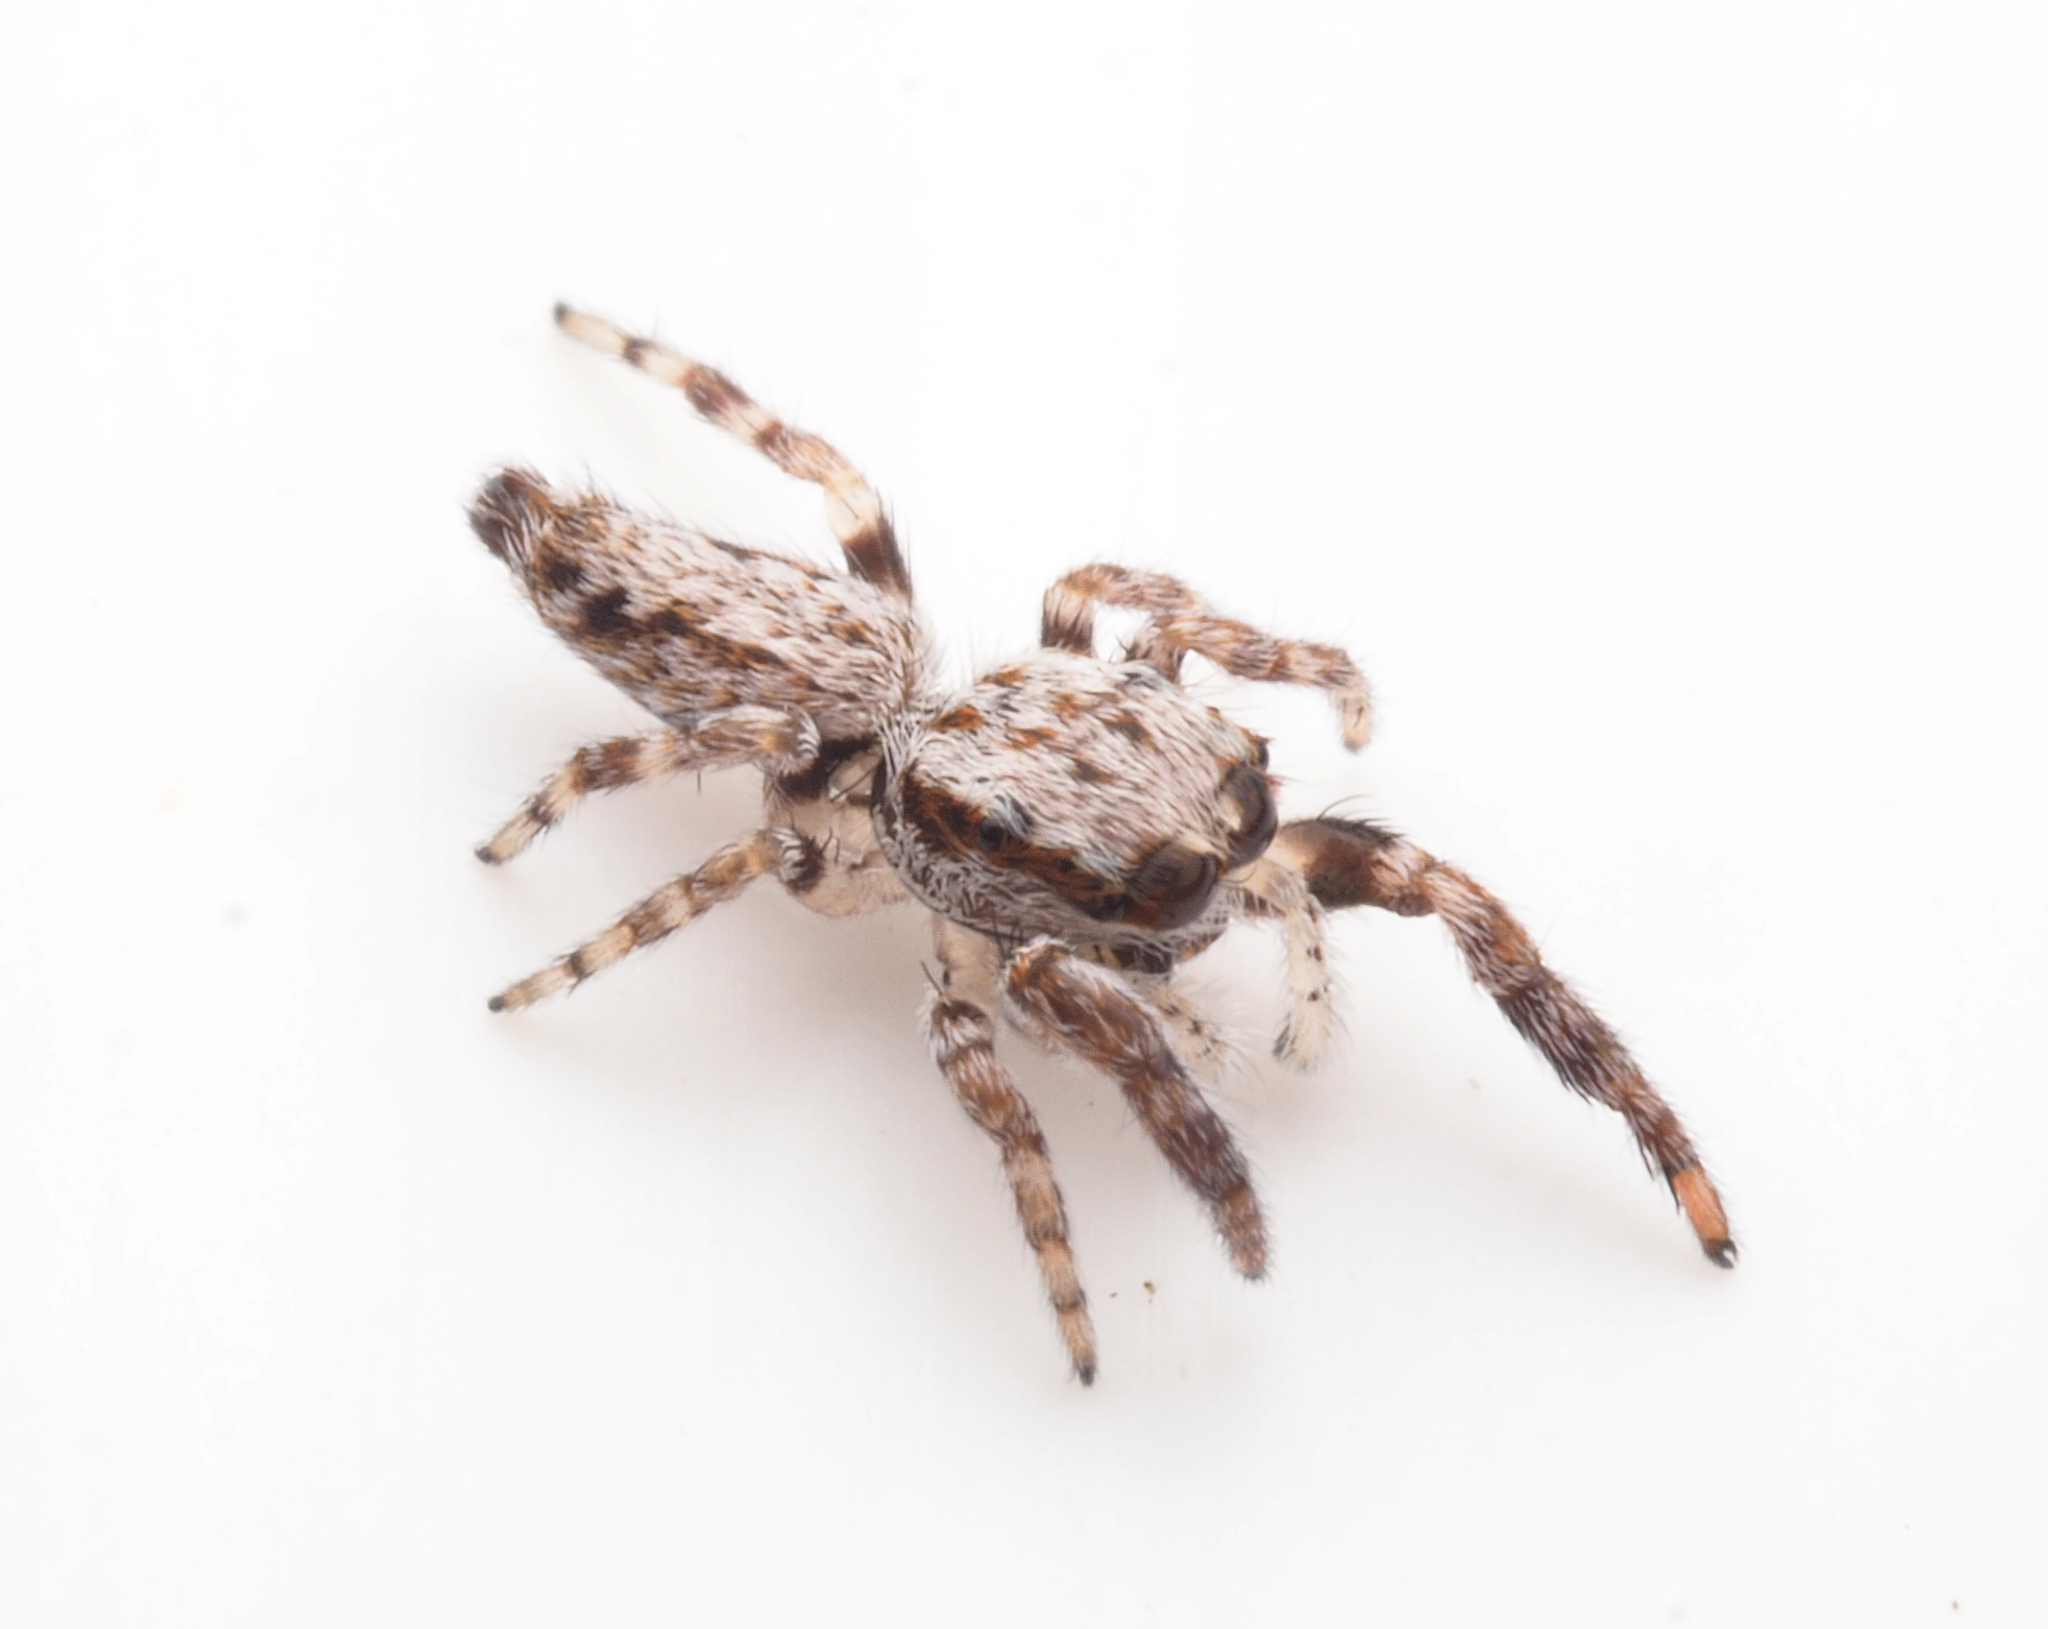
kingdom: Animalia
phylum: Arthropoda
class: Arachnida
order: Araneae
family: Salticidae
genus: Ananeon
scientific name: Ananeon
